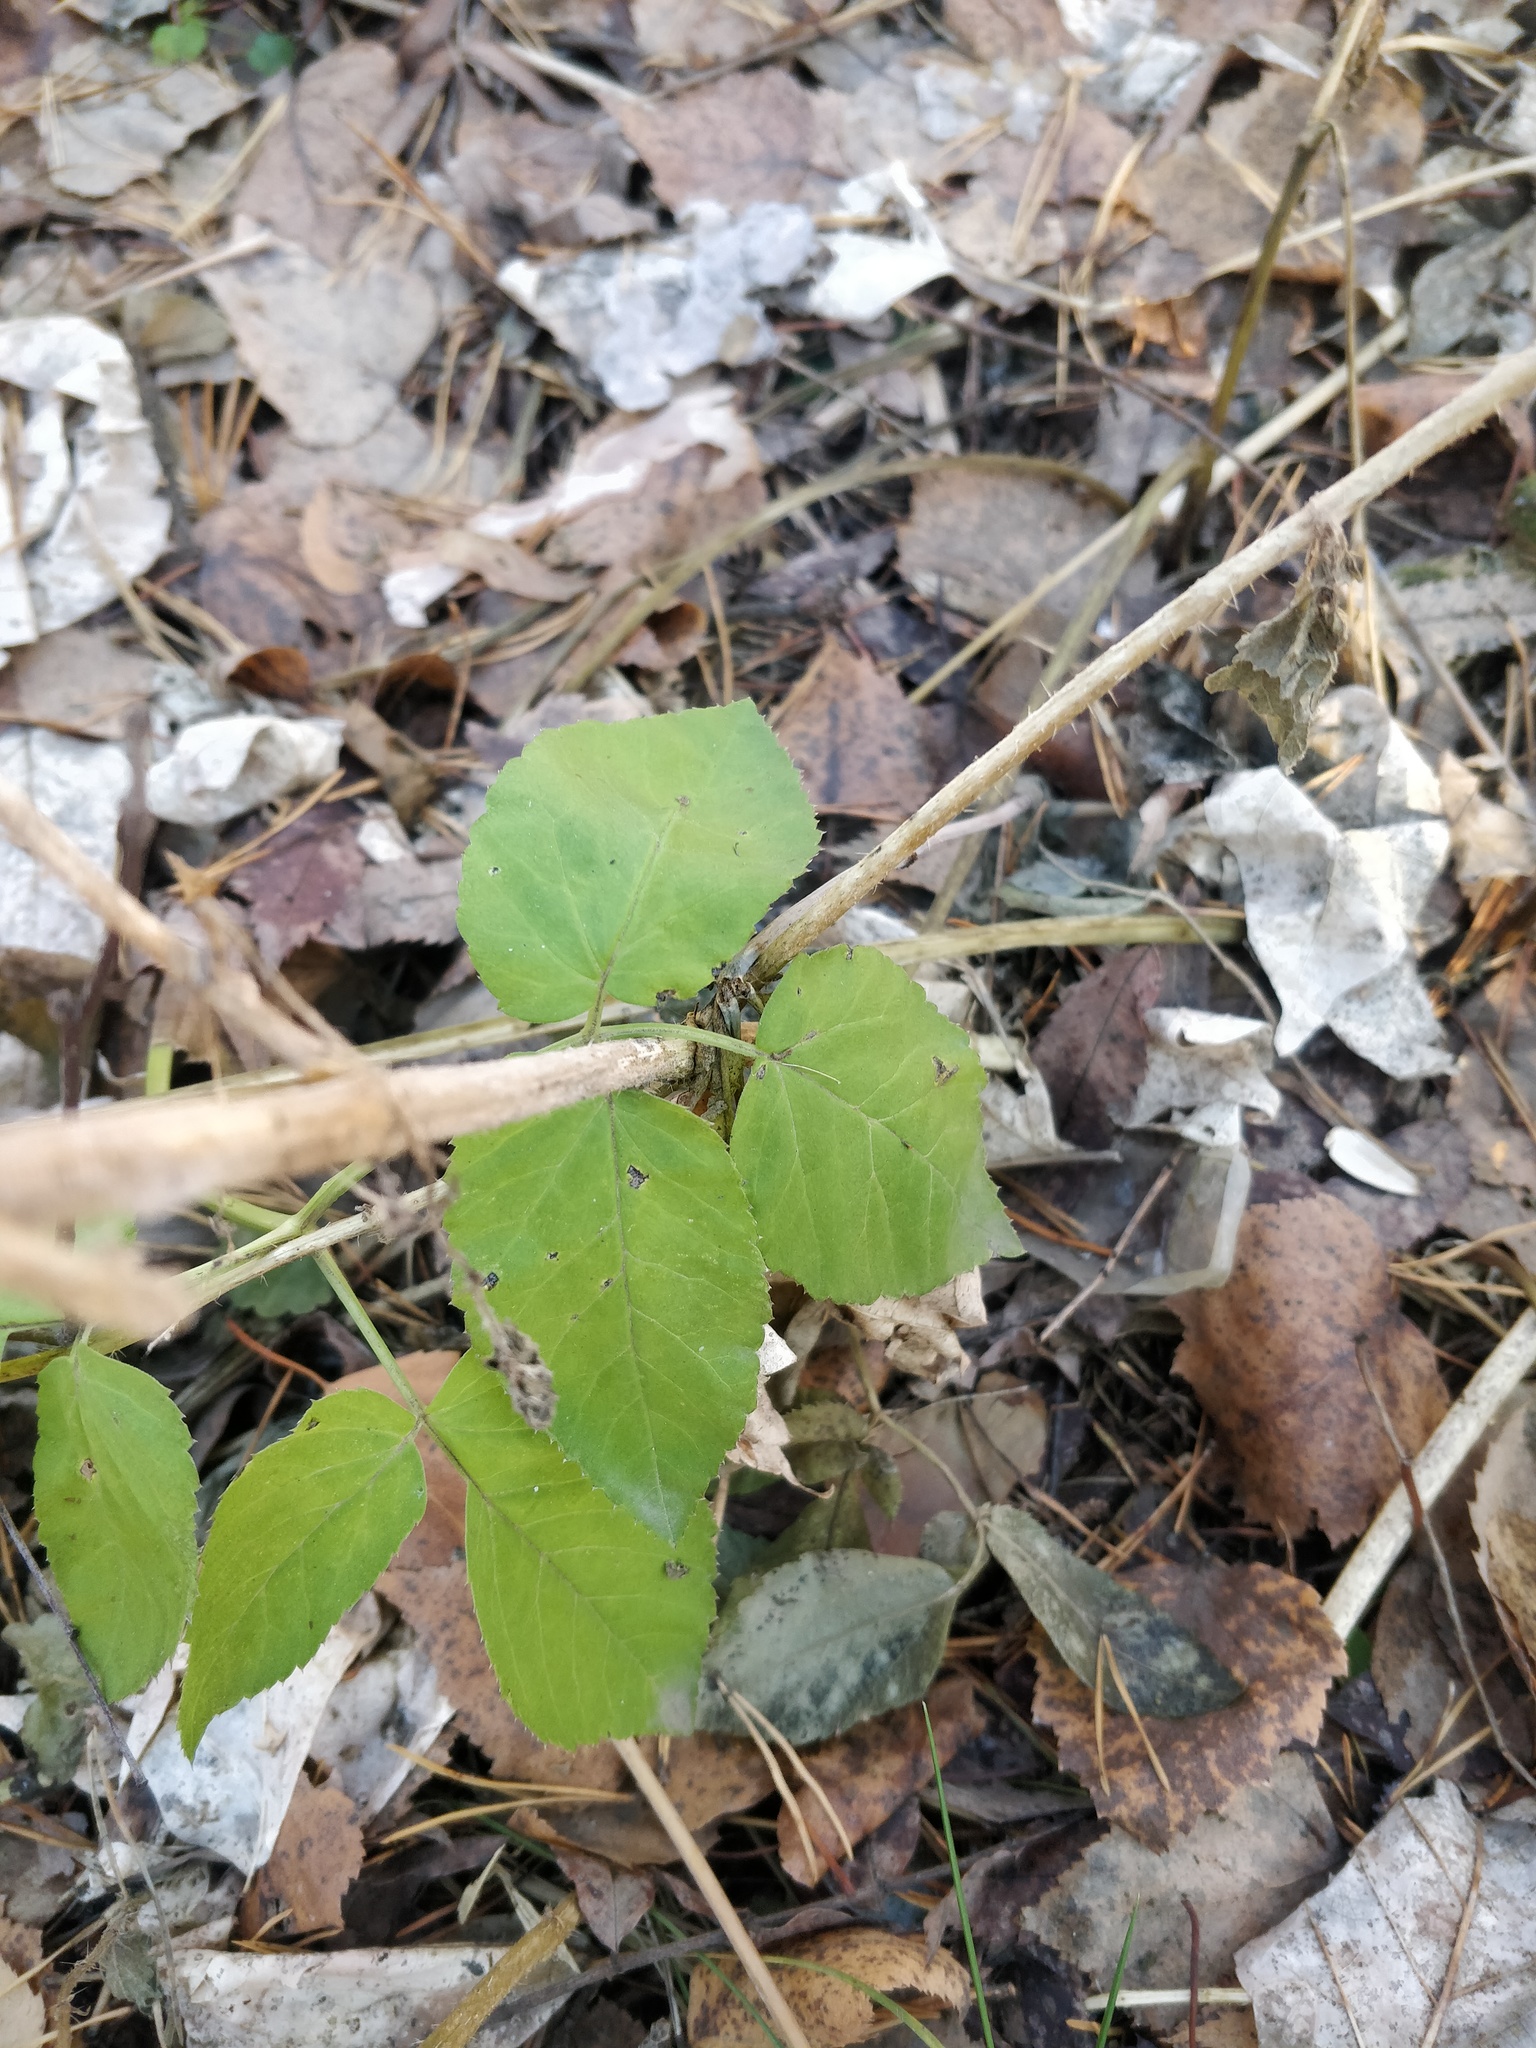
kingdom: Plantae
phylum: Tracheophyta
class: Magnoliopsida
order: Apiales
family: Apiaceae
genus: Aegopodium
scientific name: Aegopodium podagraria
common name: Ground-elder
